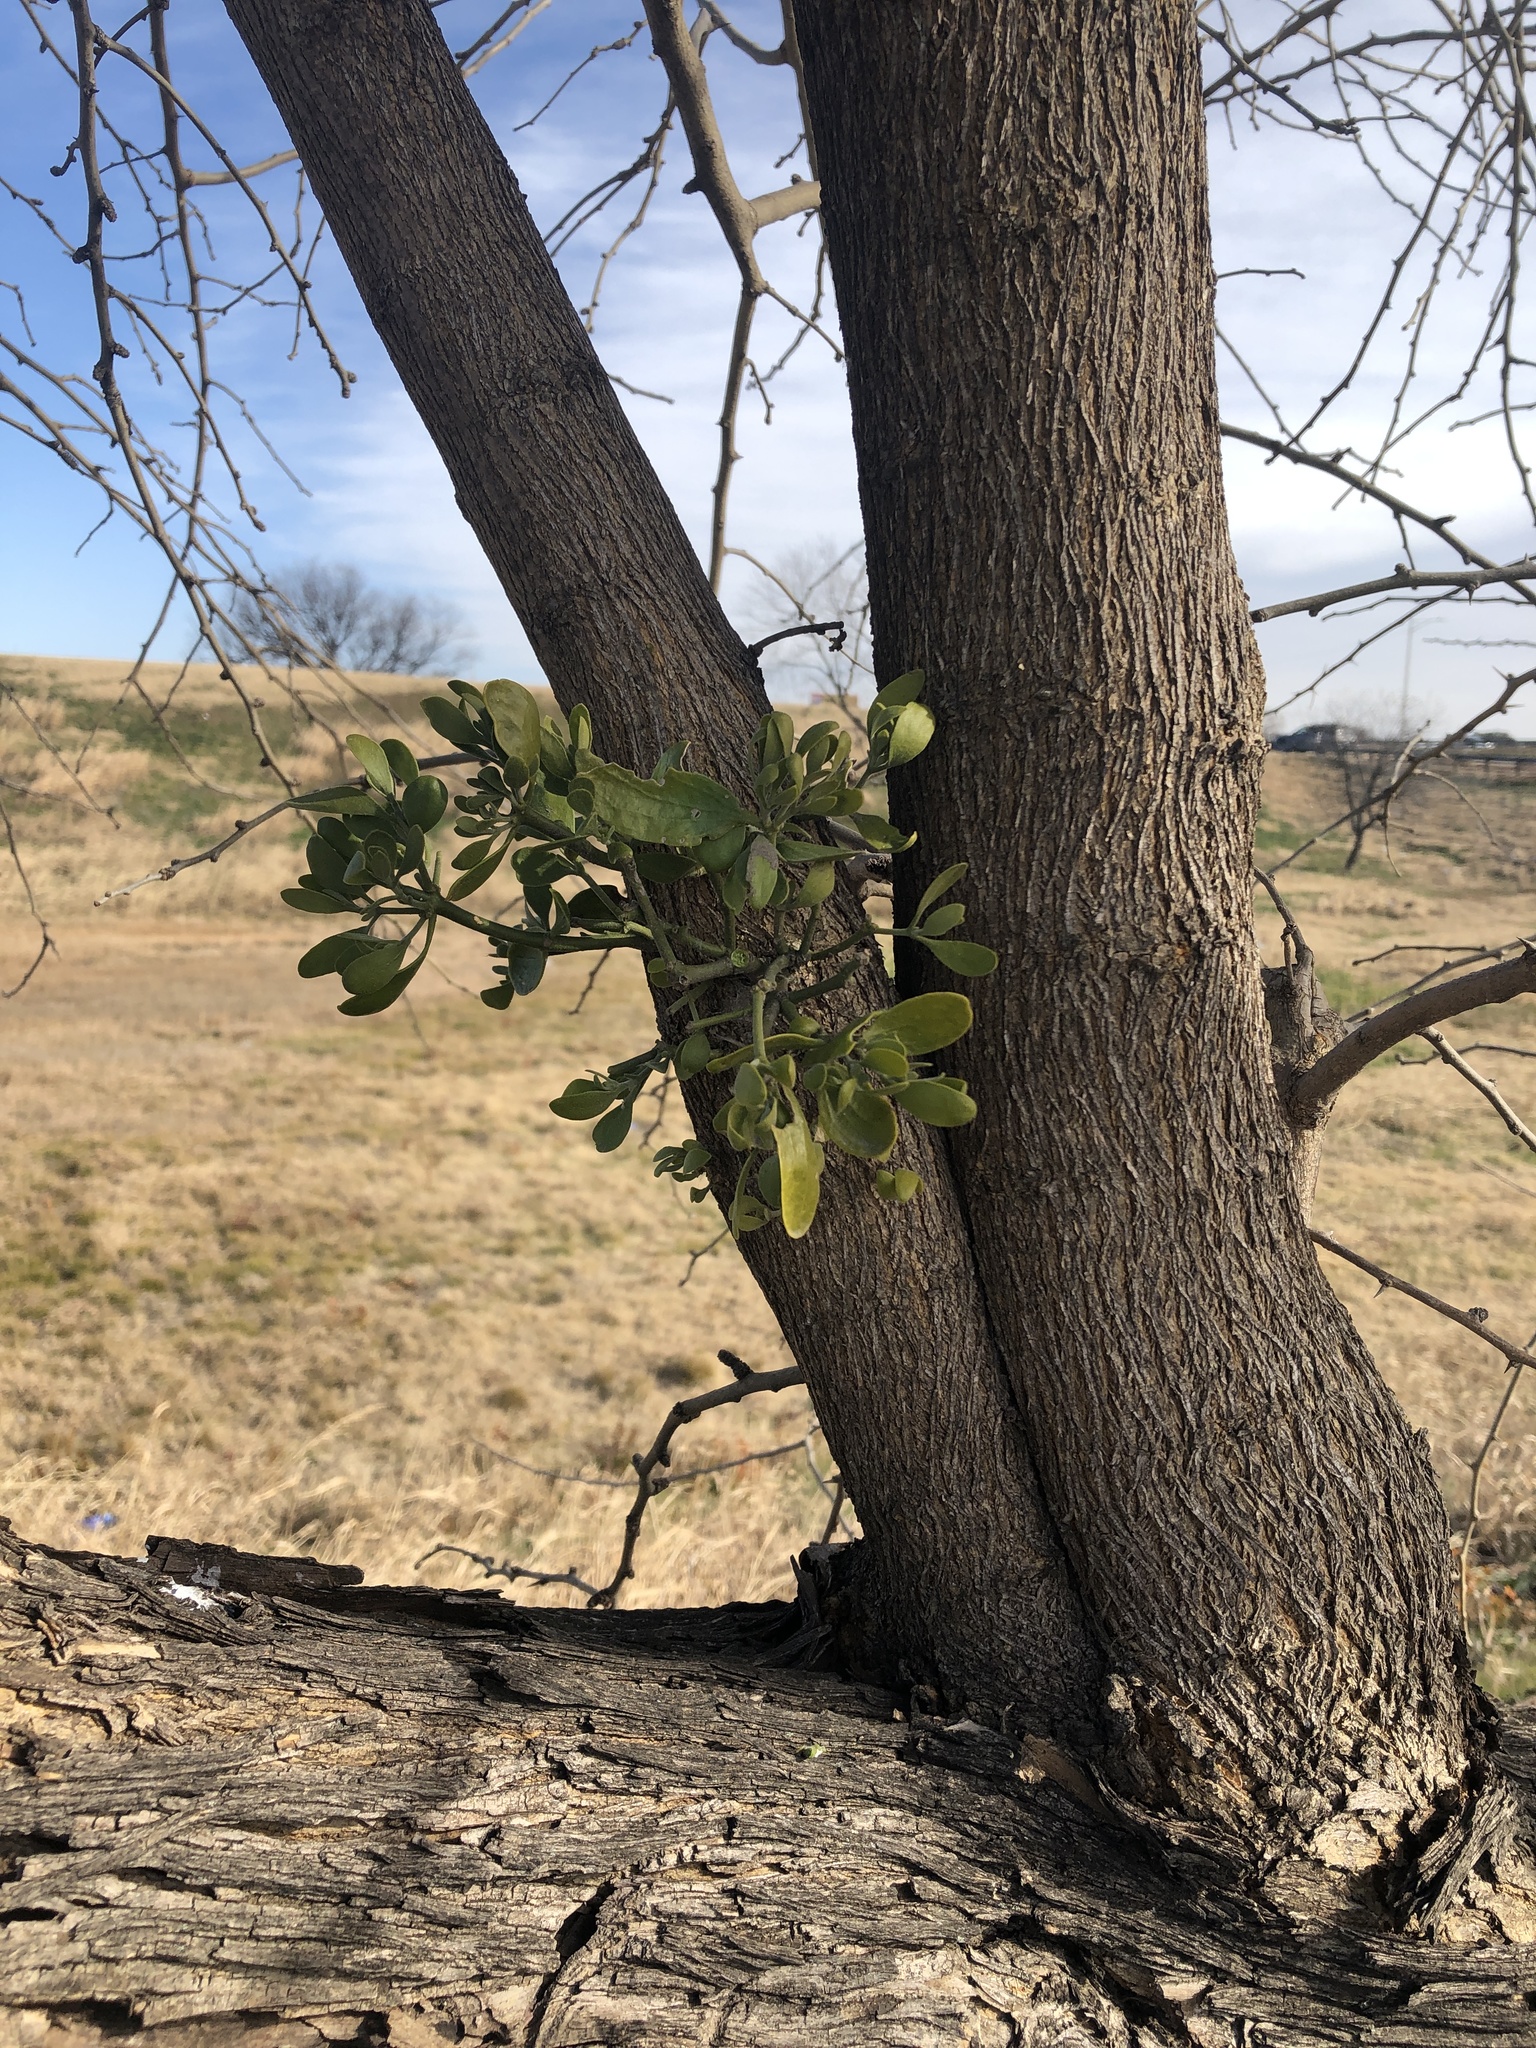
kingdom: Plantae
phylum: Tracheophyta
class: Magnoliopsida
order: Santalales
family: Viscaceae
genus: Phoradendron
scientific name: Phoradendron leucarpum
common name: Pacific mistletoe
